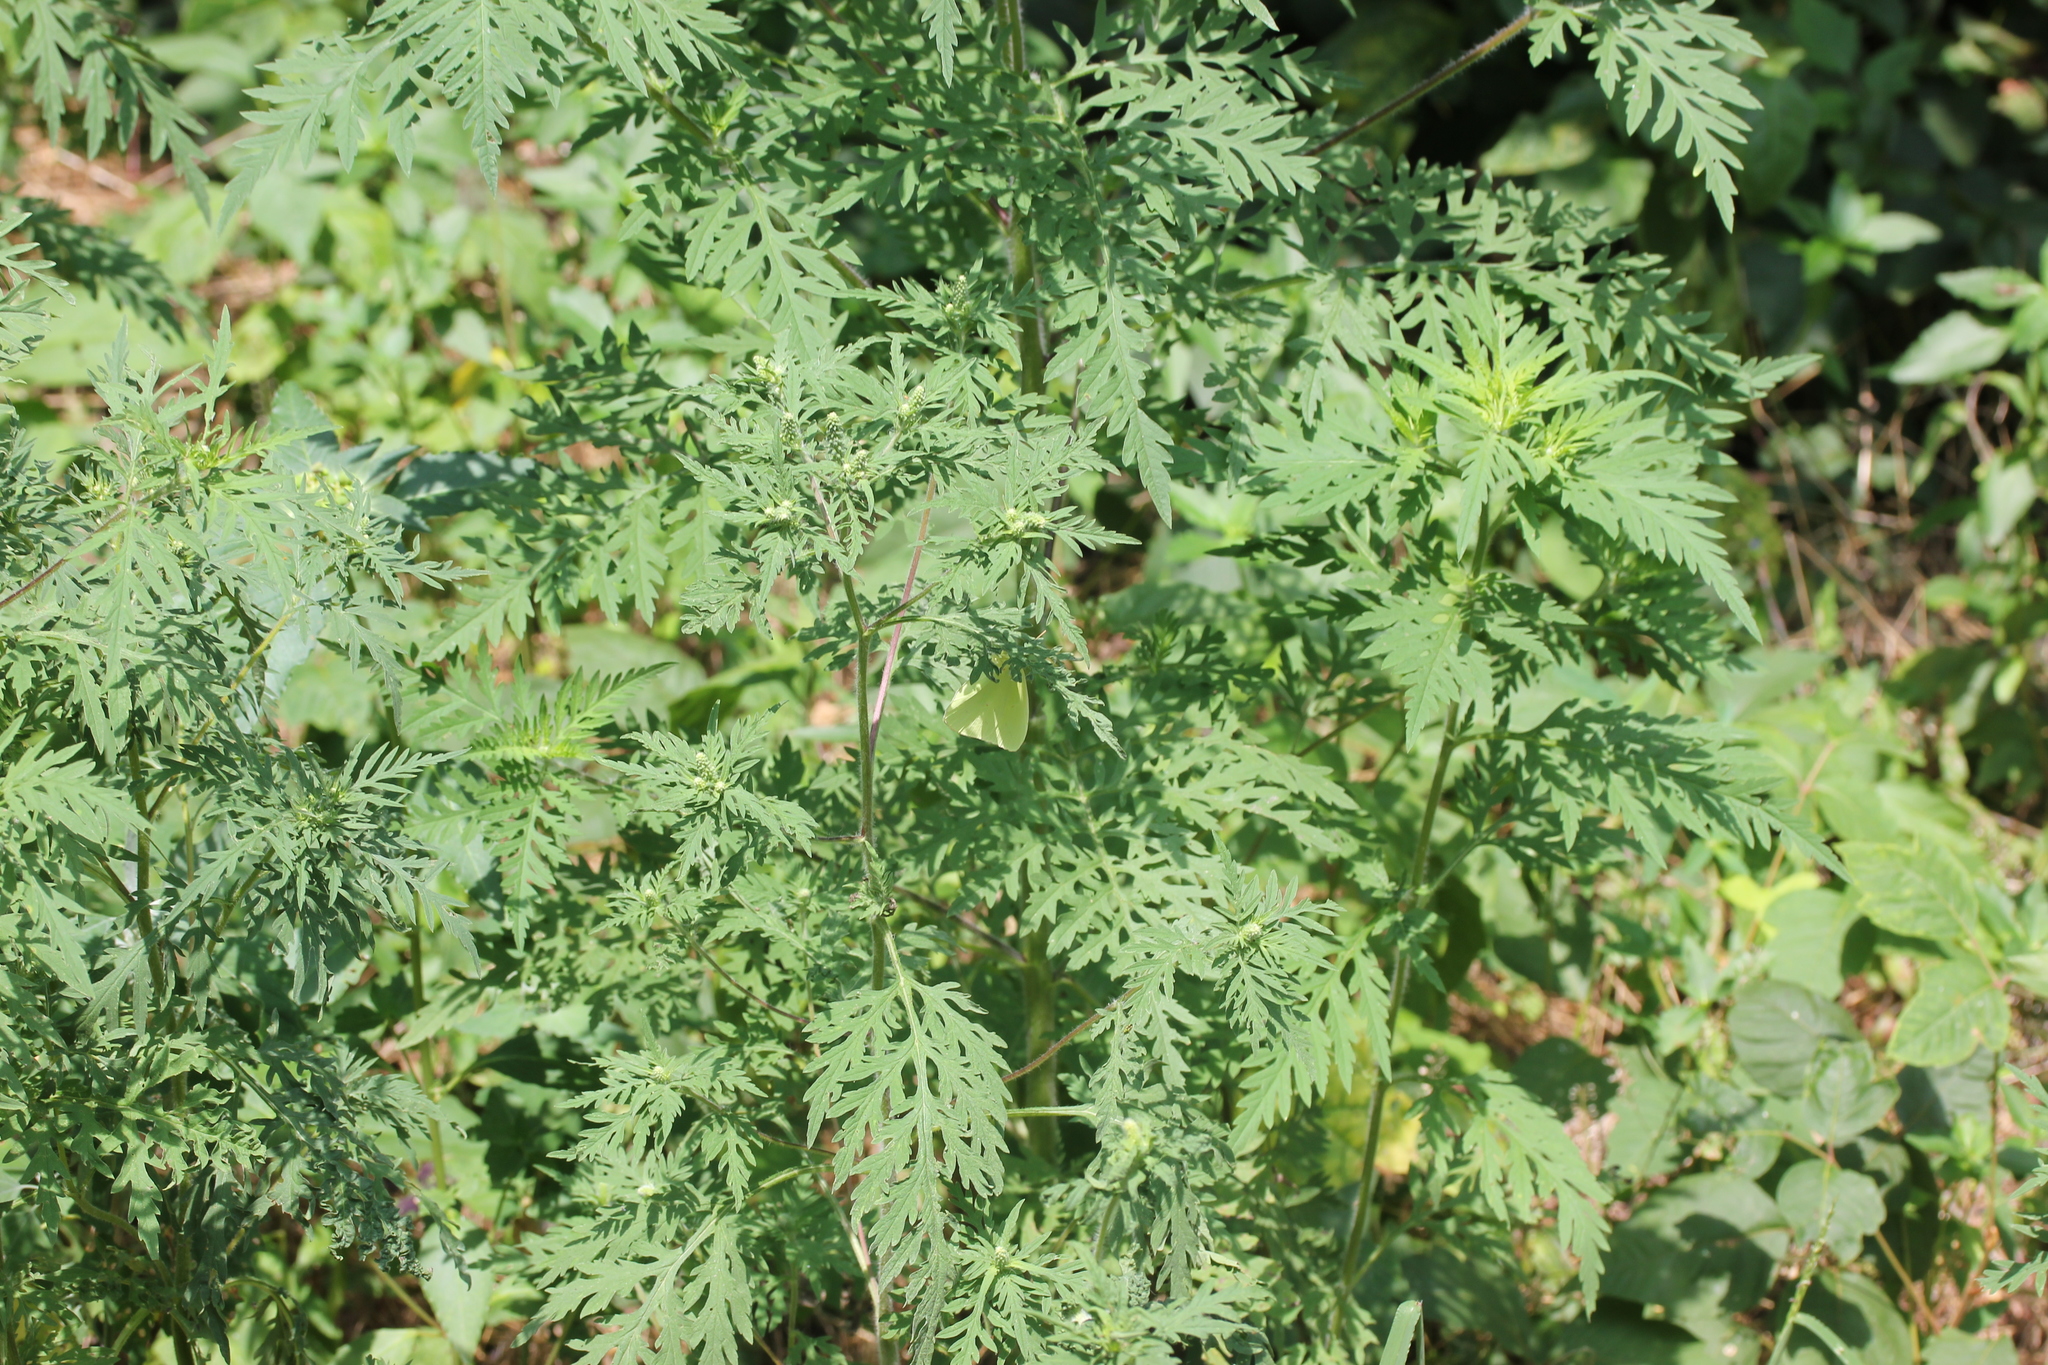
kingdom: Plantae
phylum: Tracheophyta
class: Magnoliopsida
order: Asterales
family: Asteraceae
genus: Ambrosia
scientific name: Ambrosia artemisiifolia
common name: Annual ragweed
